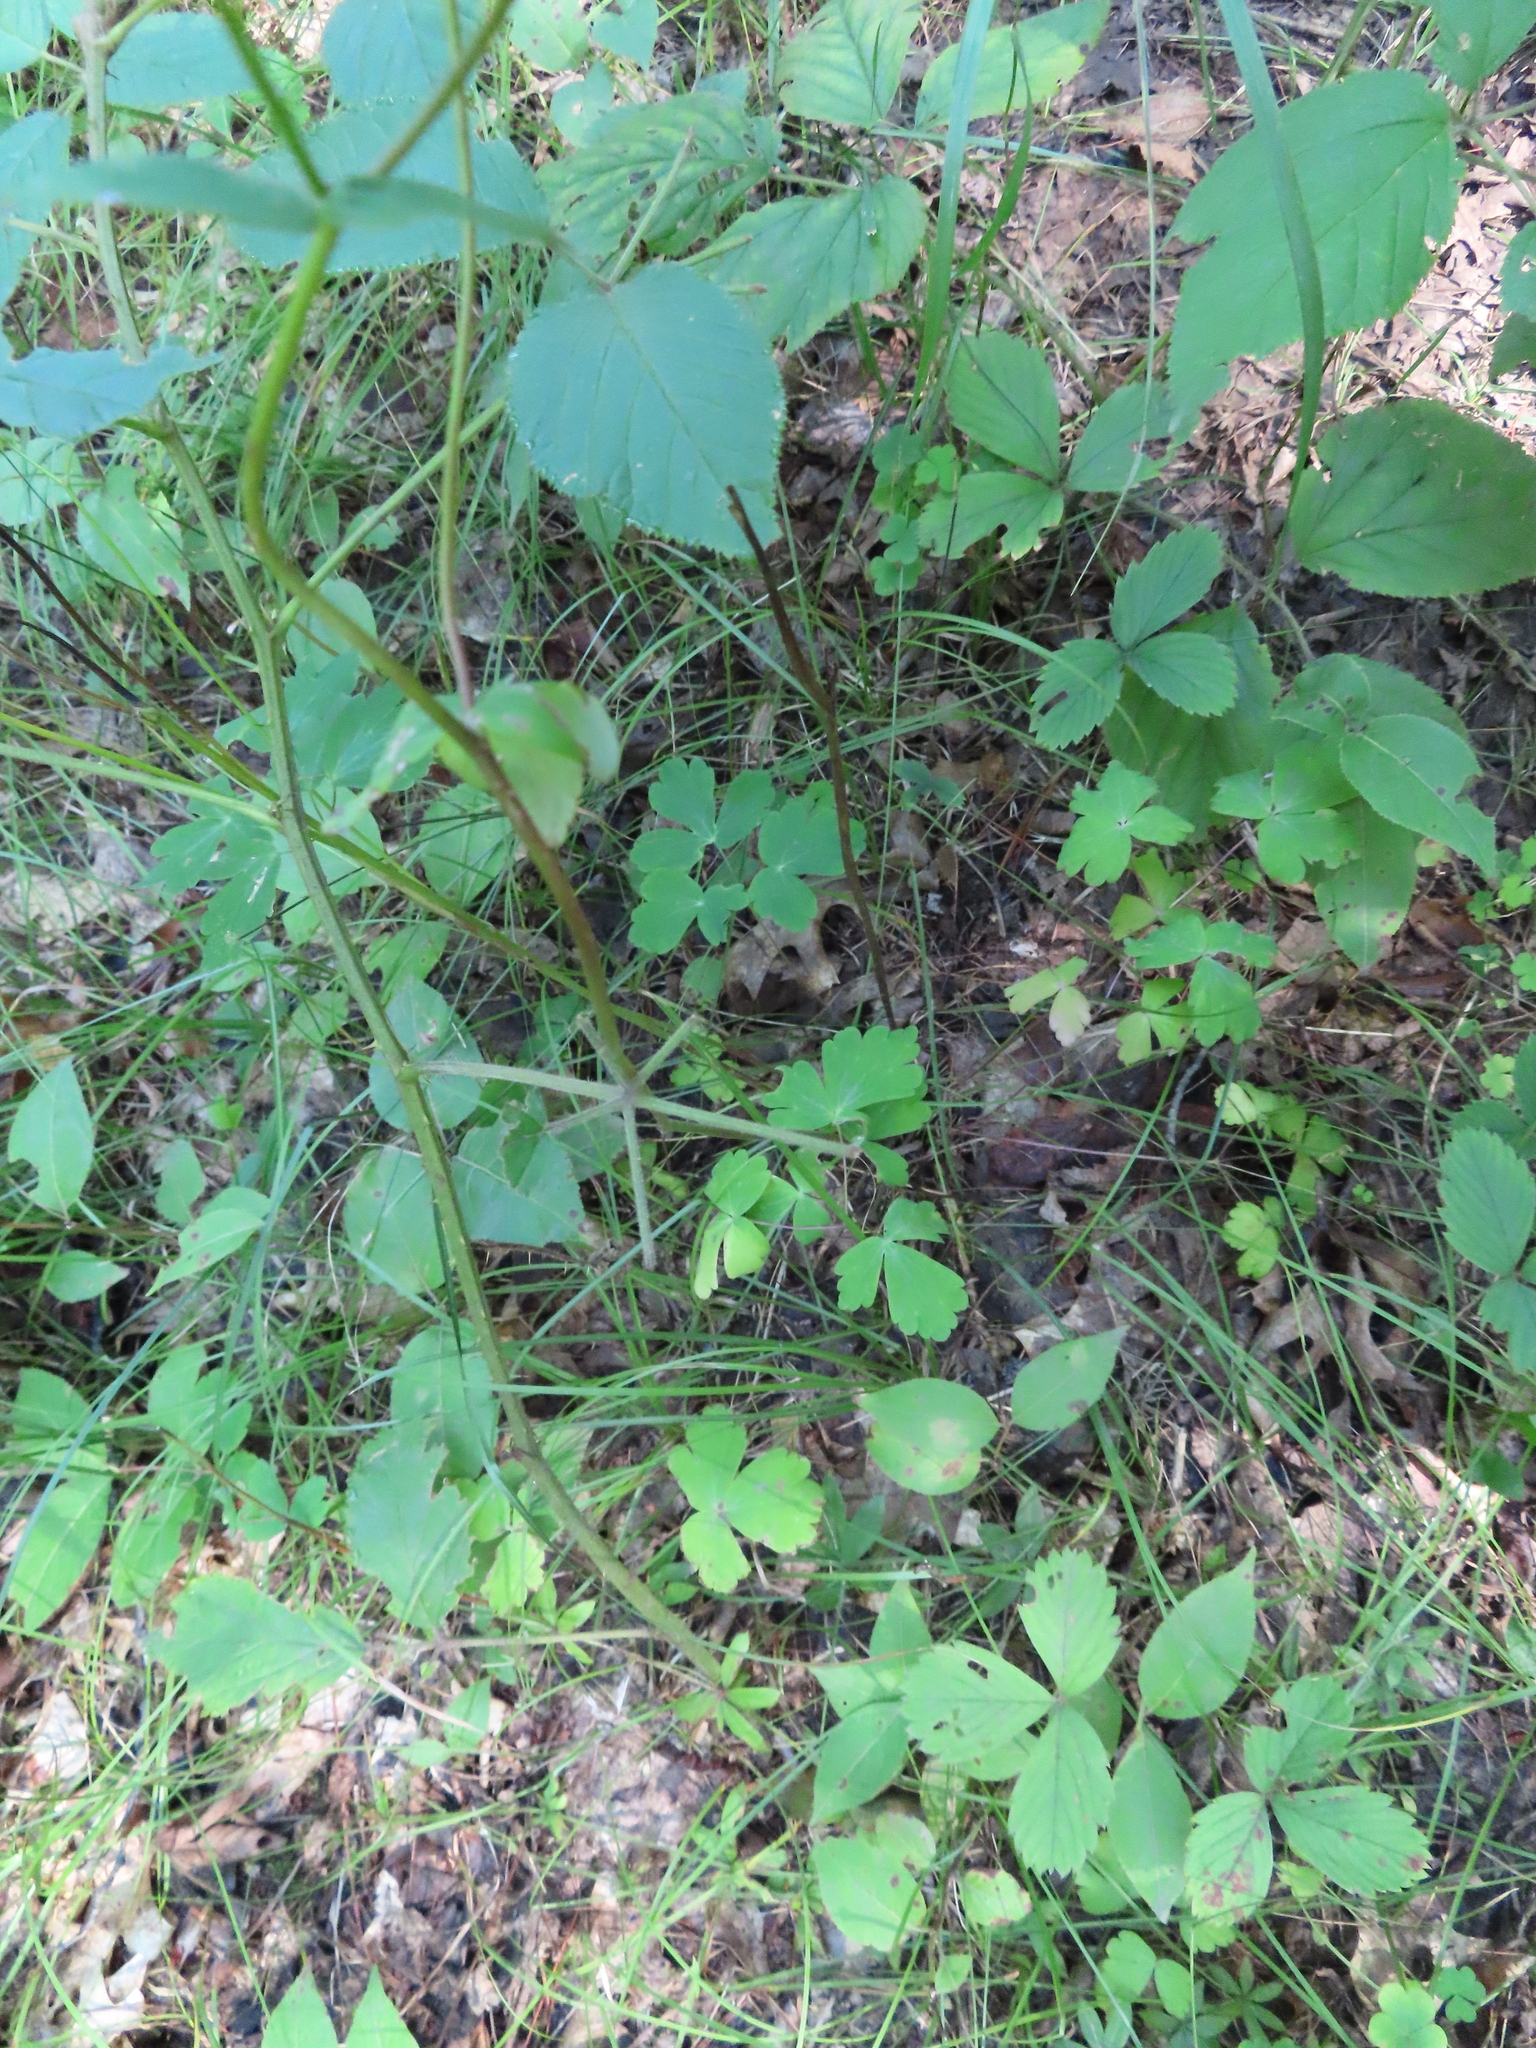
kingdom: Plantae
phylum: Tracheophyta
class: Magnoliopsida
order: Ranunculales
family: Ranunculaceae
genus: Aquilegia
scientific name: Aquilegia canadensis
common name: American columbine
